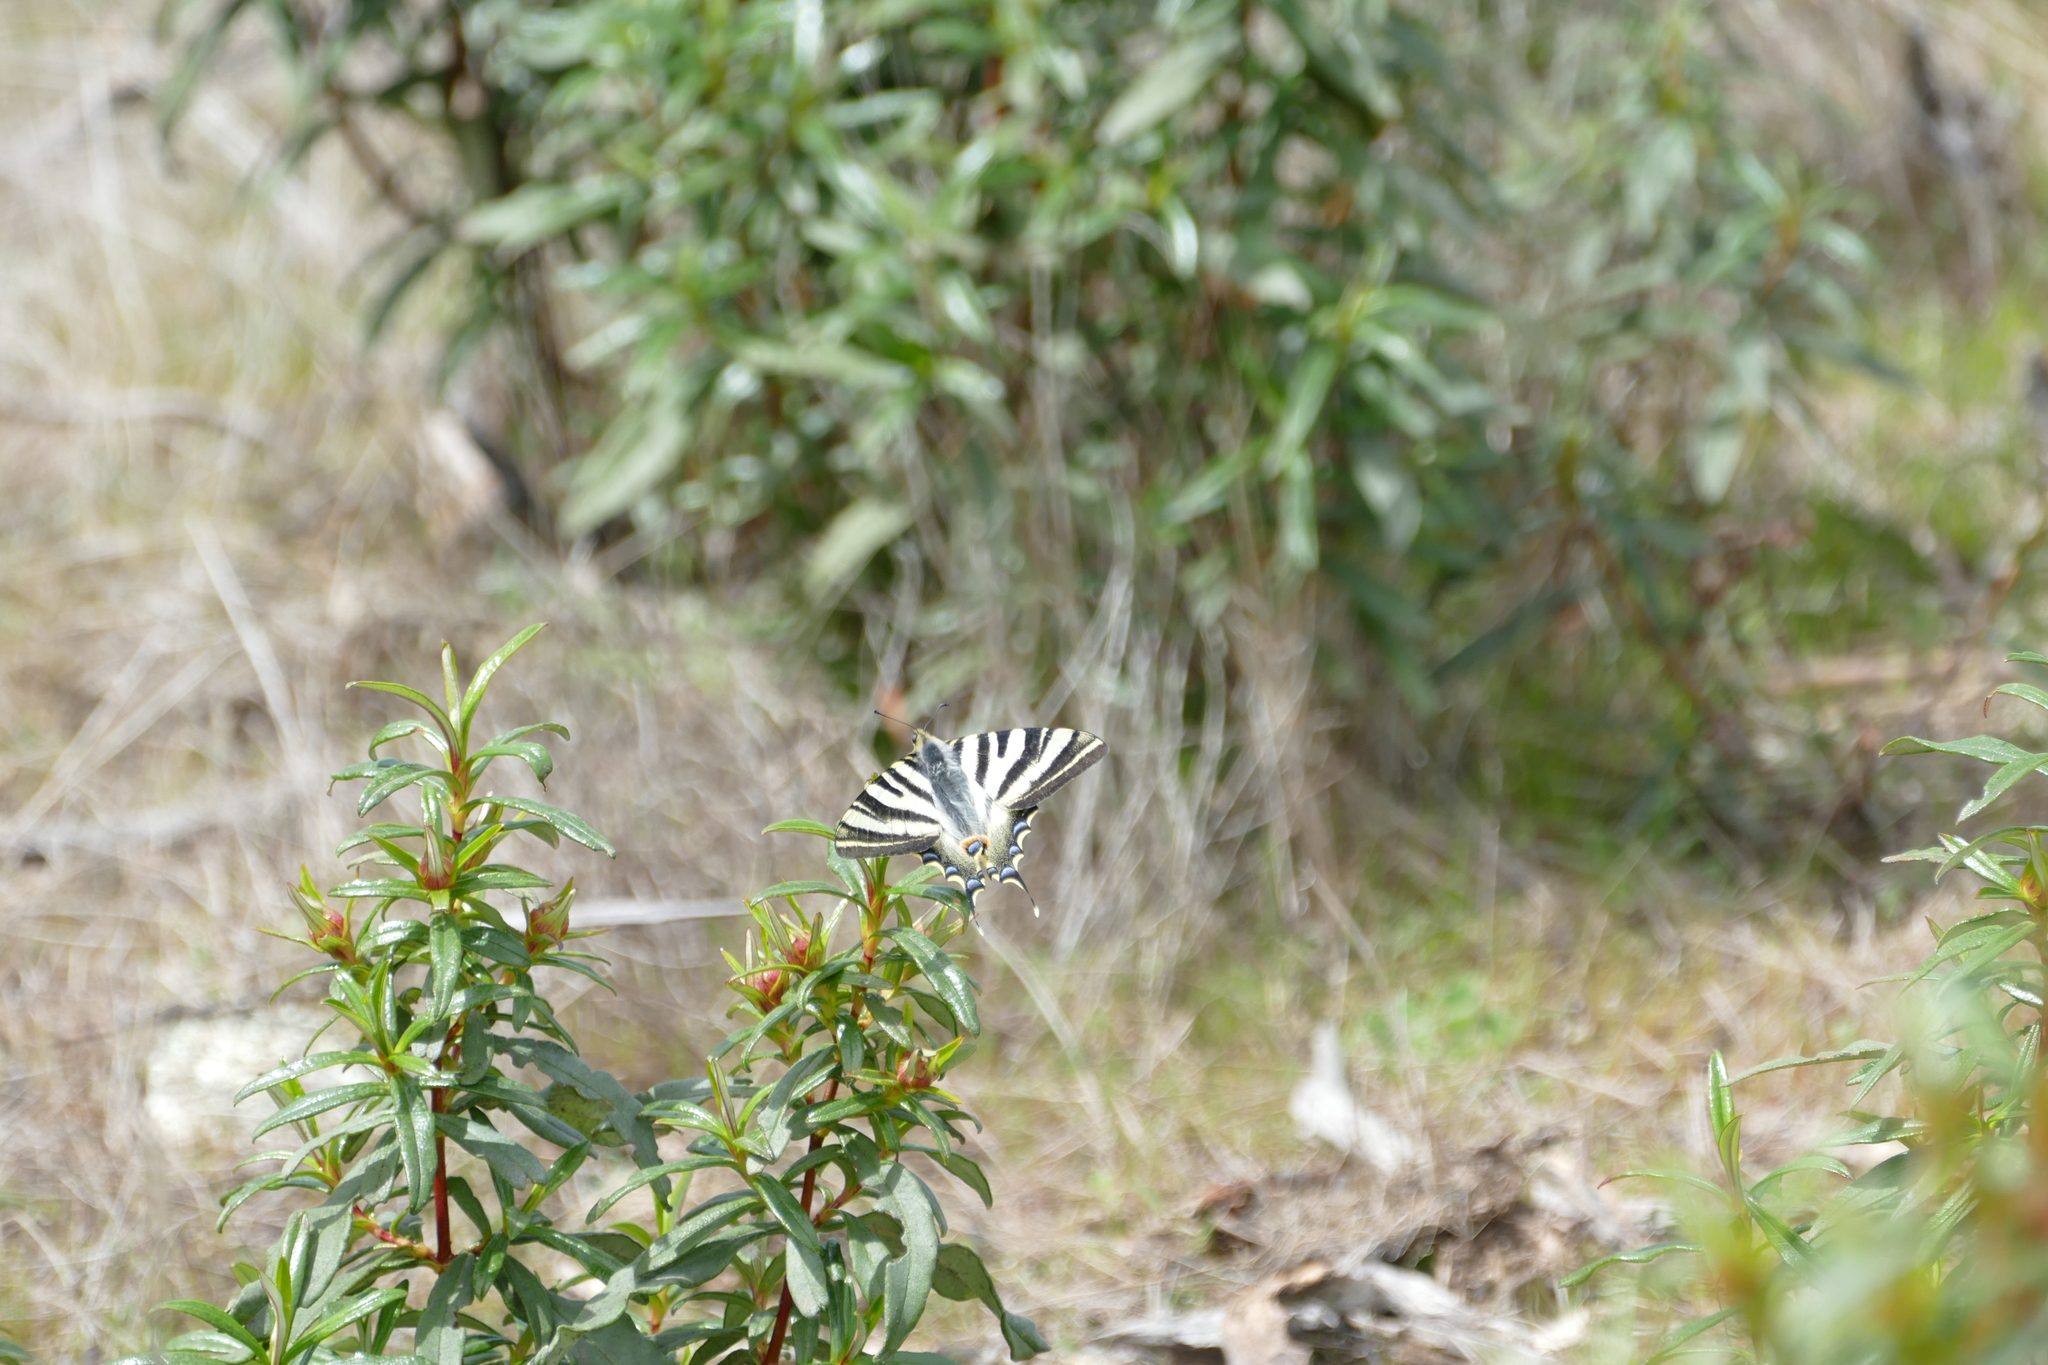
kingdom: Animalia
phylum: Arthropoda
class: Insecta
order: Lepidoptera
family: Papilionidae
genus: Iphiclides
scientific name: Iphiclides feisthamelii
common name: Iberian scarce swallowtail
